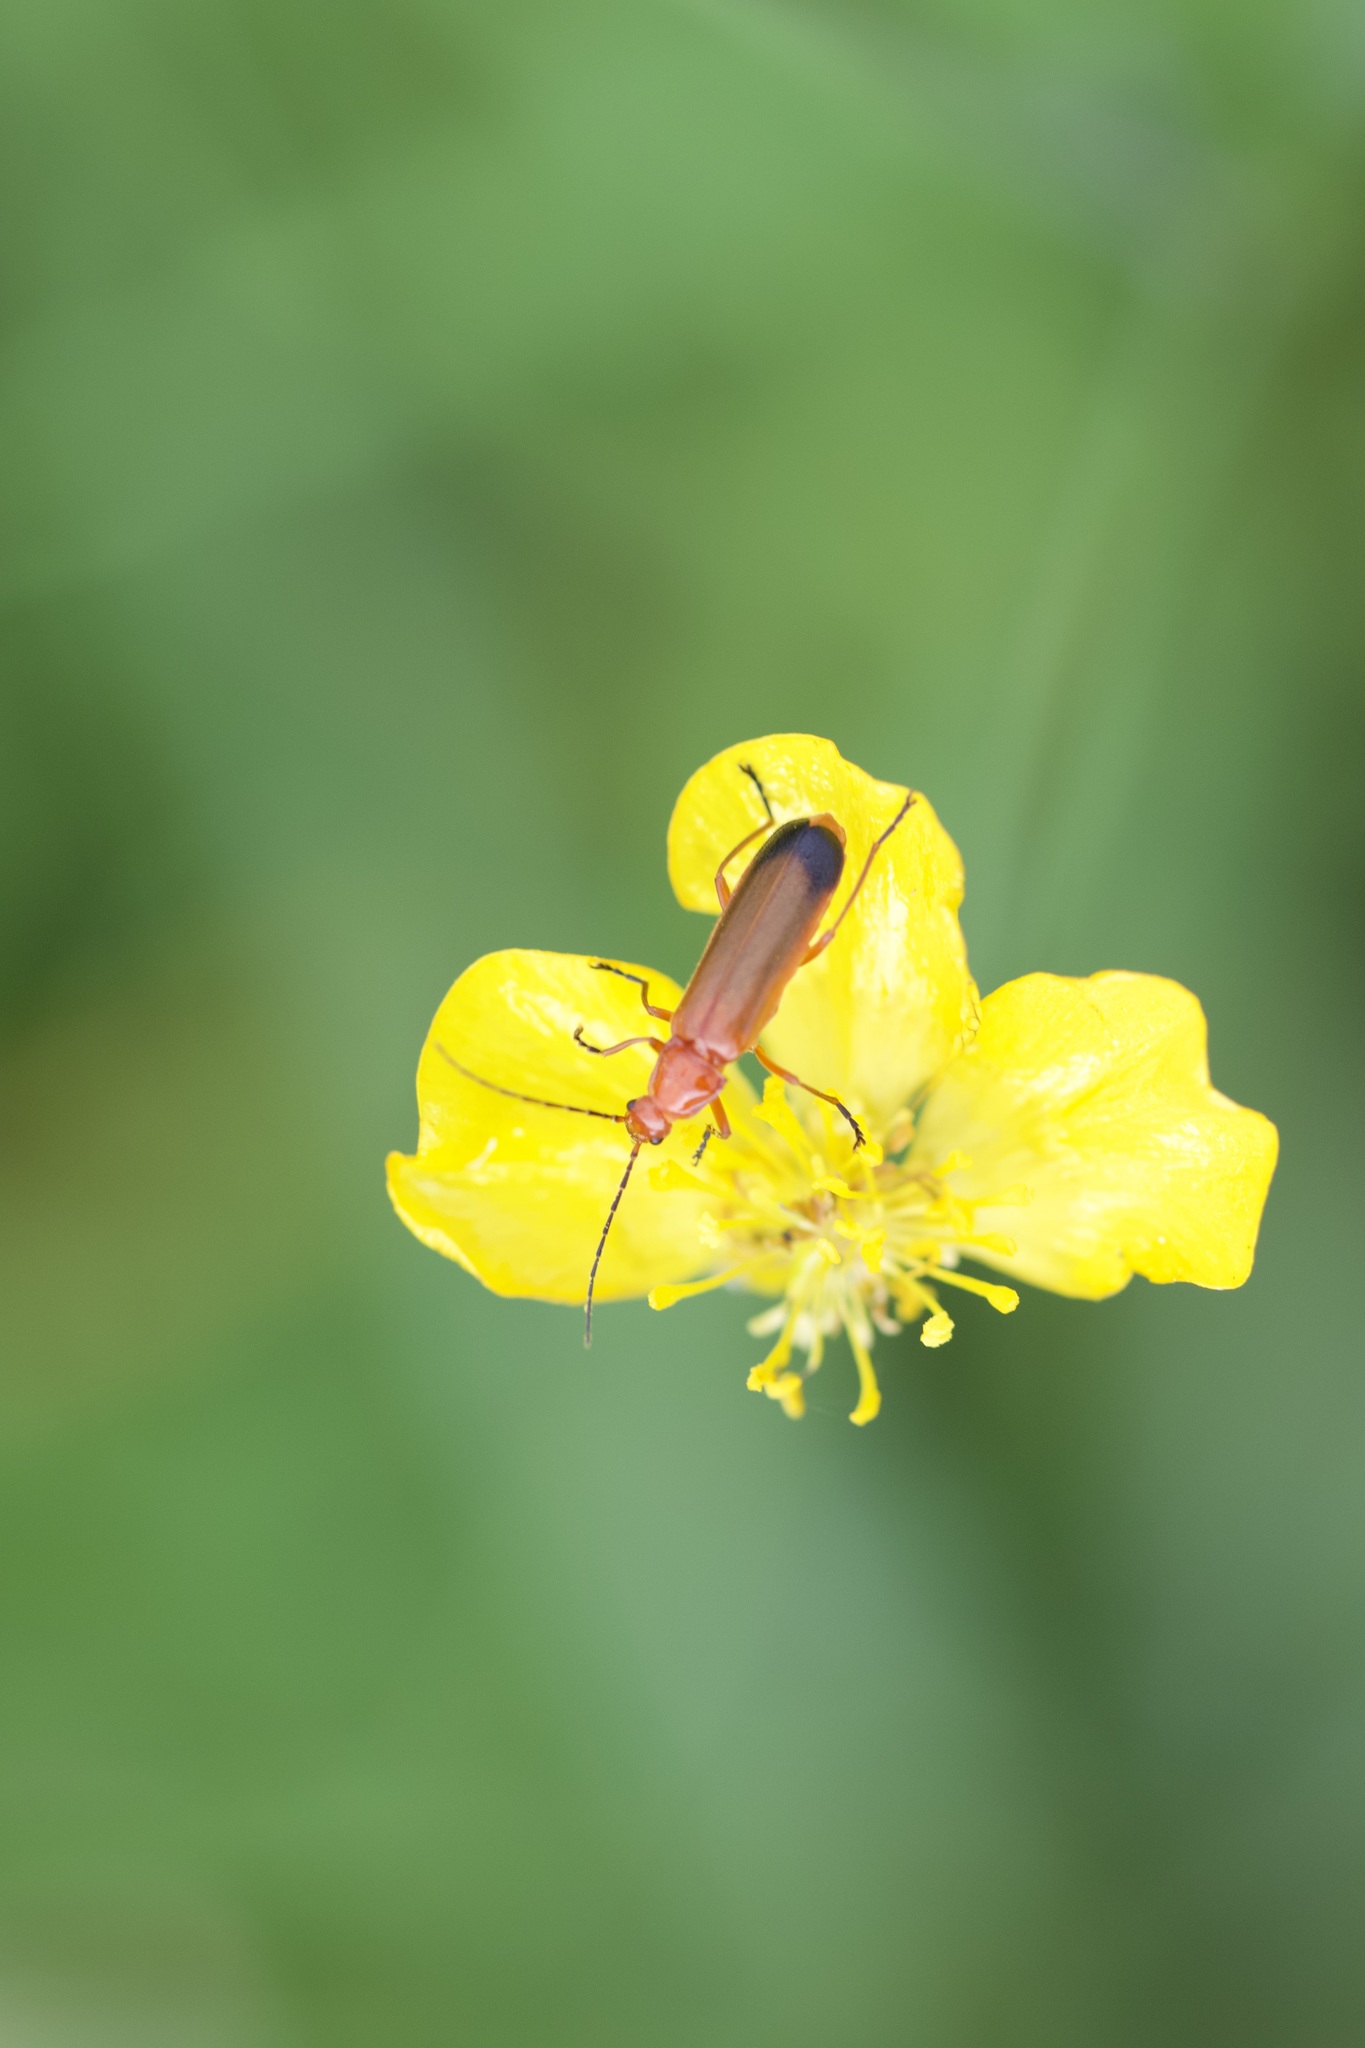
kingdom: Animalia
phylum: Arthropoda
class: Insecta
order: Coleoptera
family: Cantharidae
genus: Rhagonycha
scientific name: Rhagonycha fulva
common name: Common red soldier beetle
